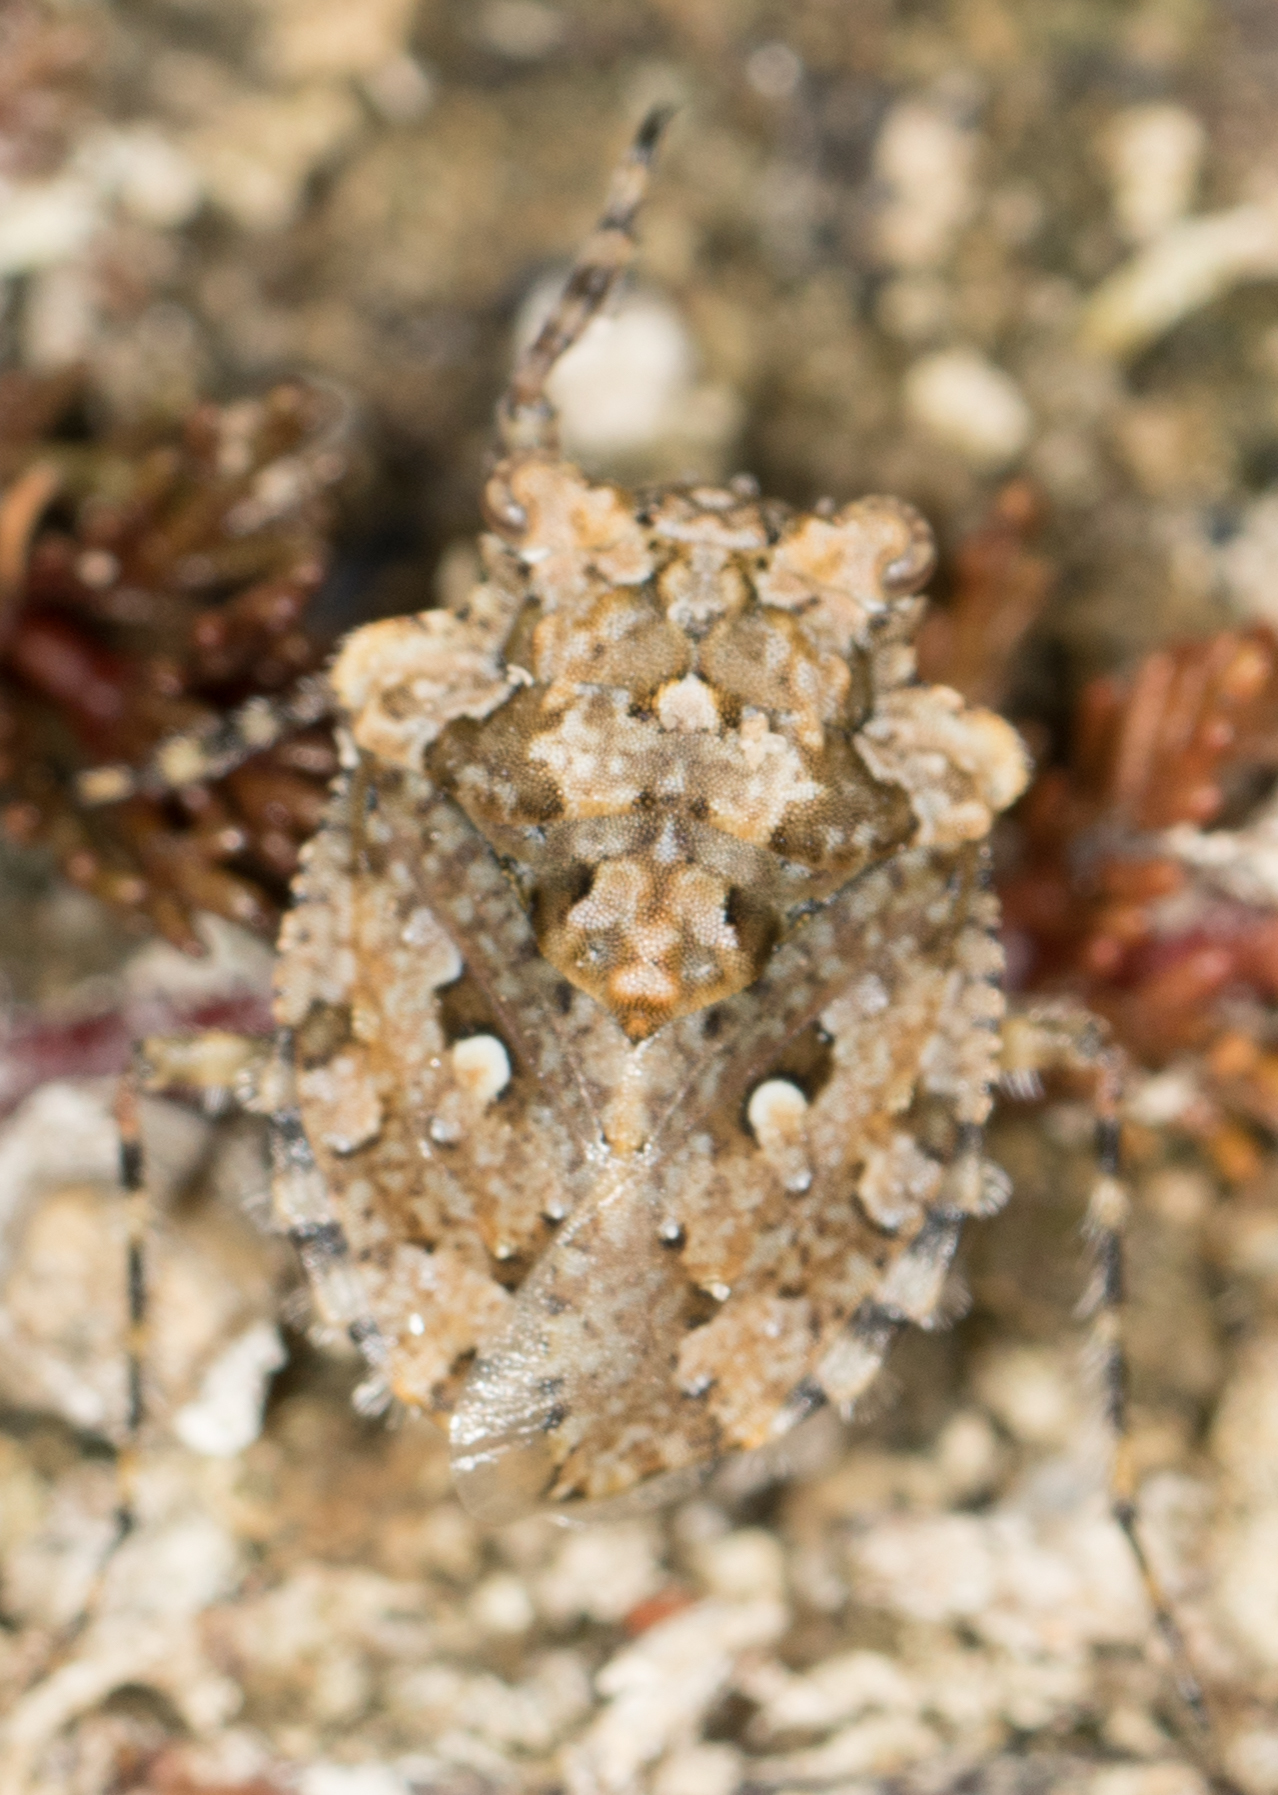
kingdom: Animalia
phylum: Arthropoda
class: Insecta
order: Hemiptera
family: Gelastocoridae
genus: Gelastocoris
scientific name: Gelastocoris oculatus
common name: Toad bug
